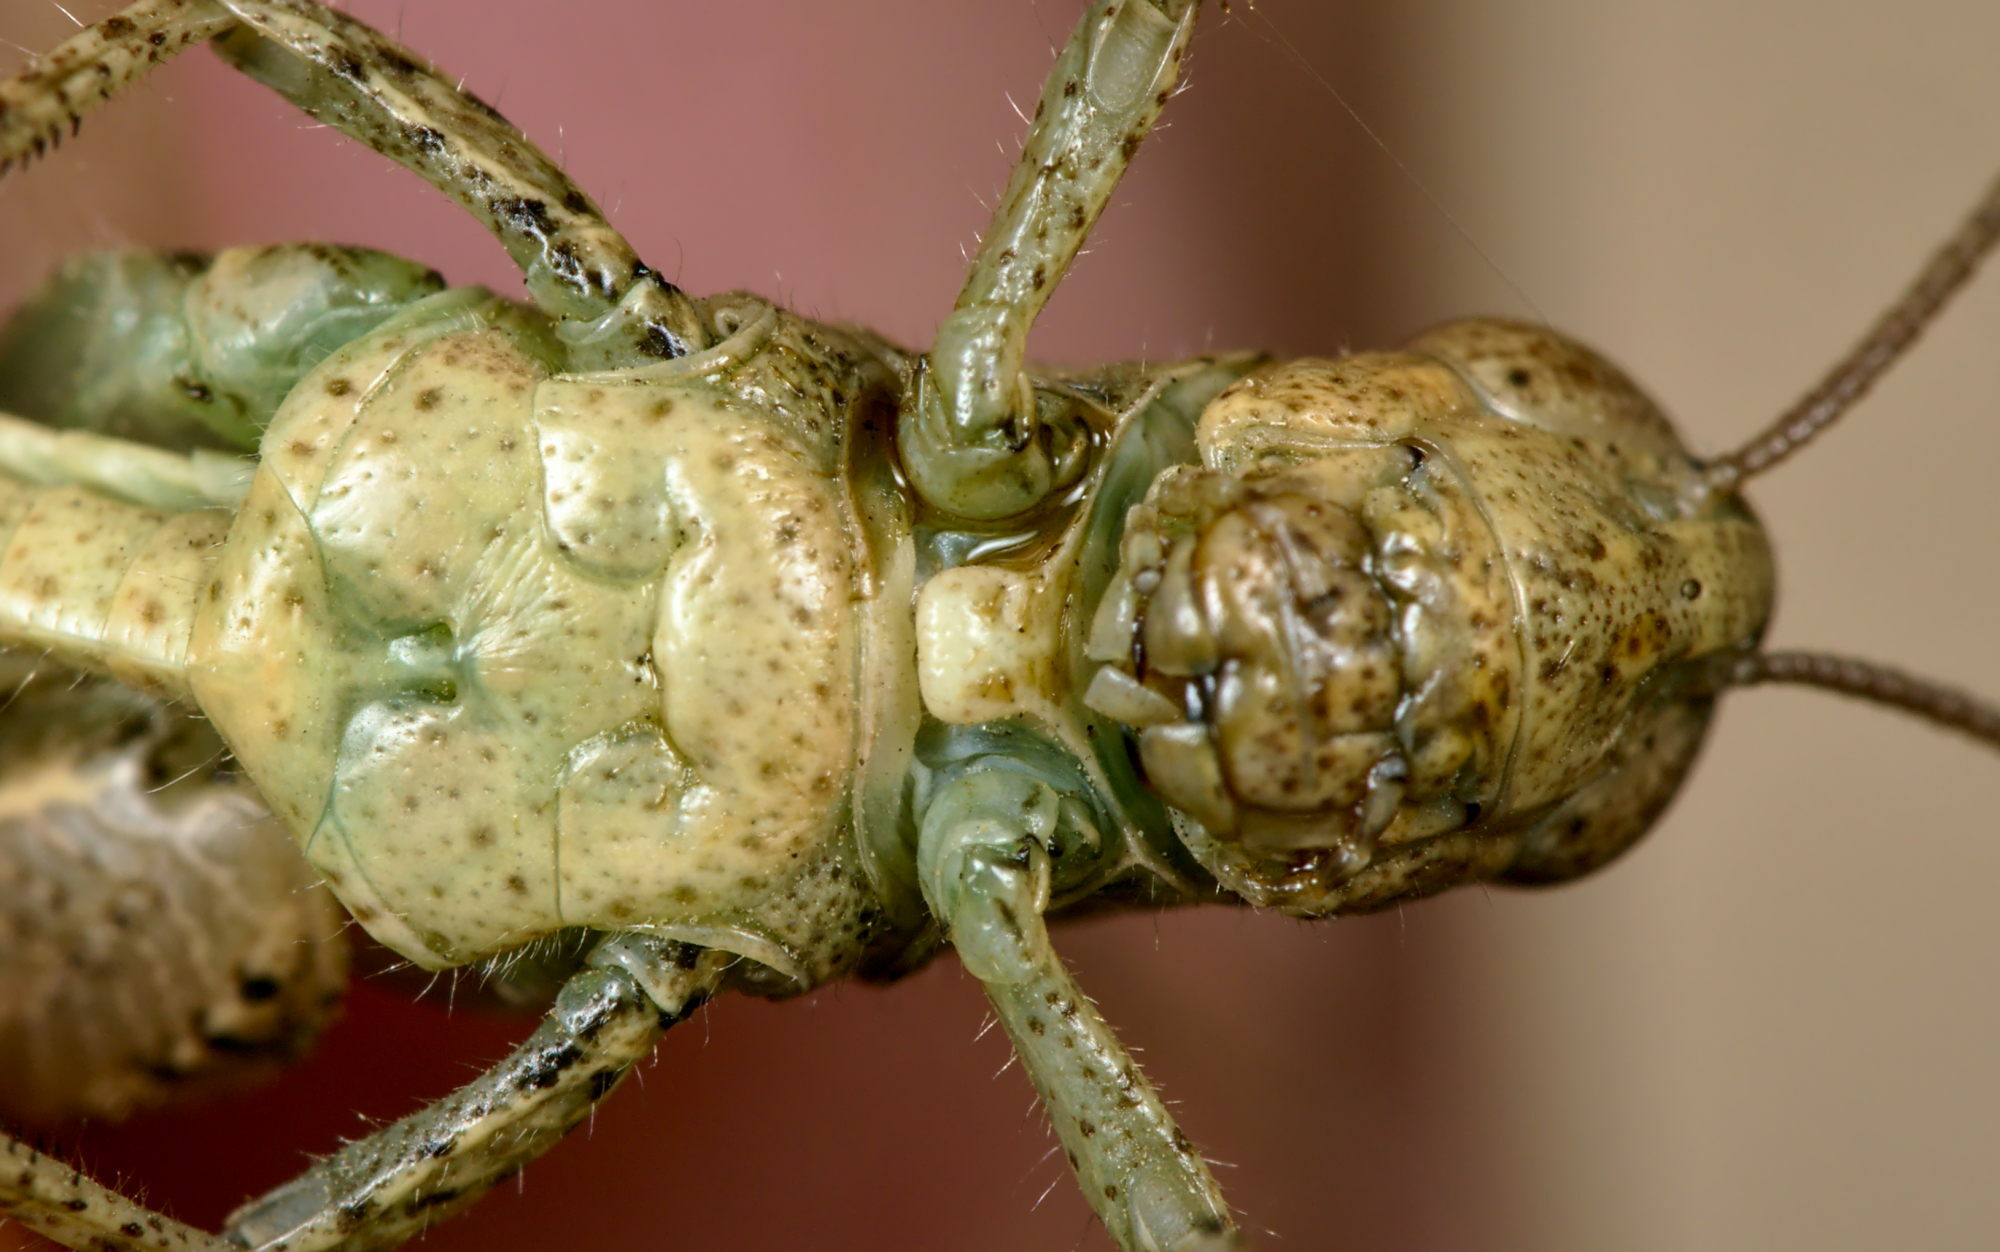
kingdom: Animalia
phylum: Arthropoda
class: Insecta
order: Orthoptera
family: Acrididae
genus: Pezotettix
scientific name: Pezotettix giornae
